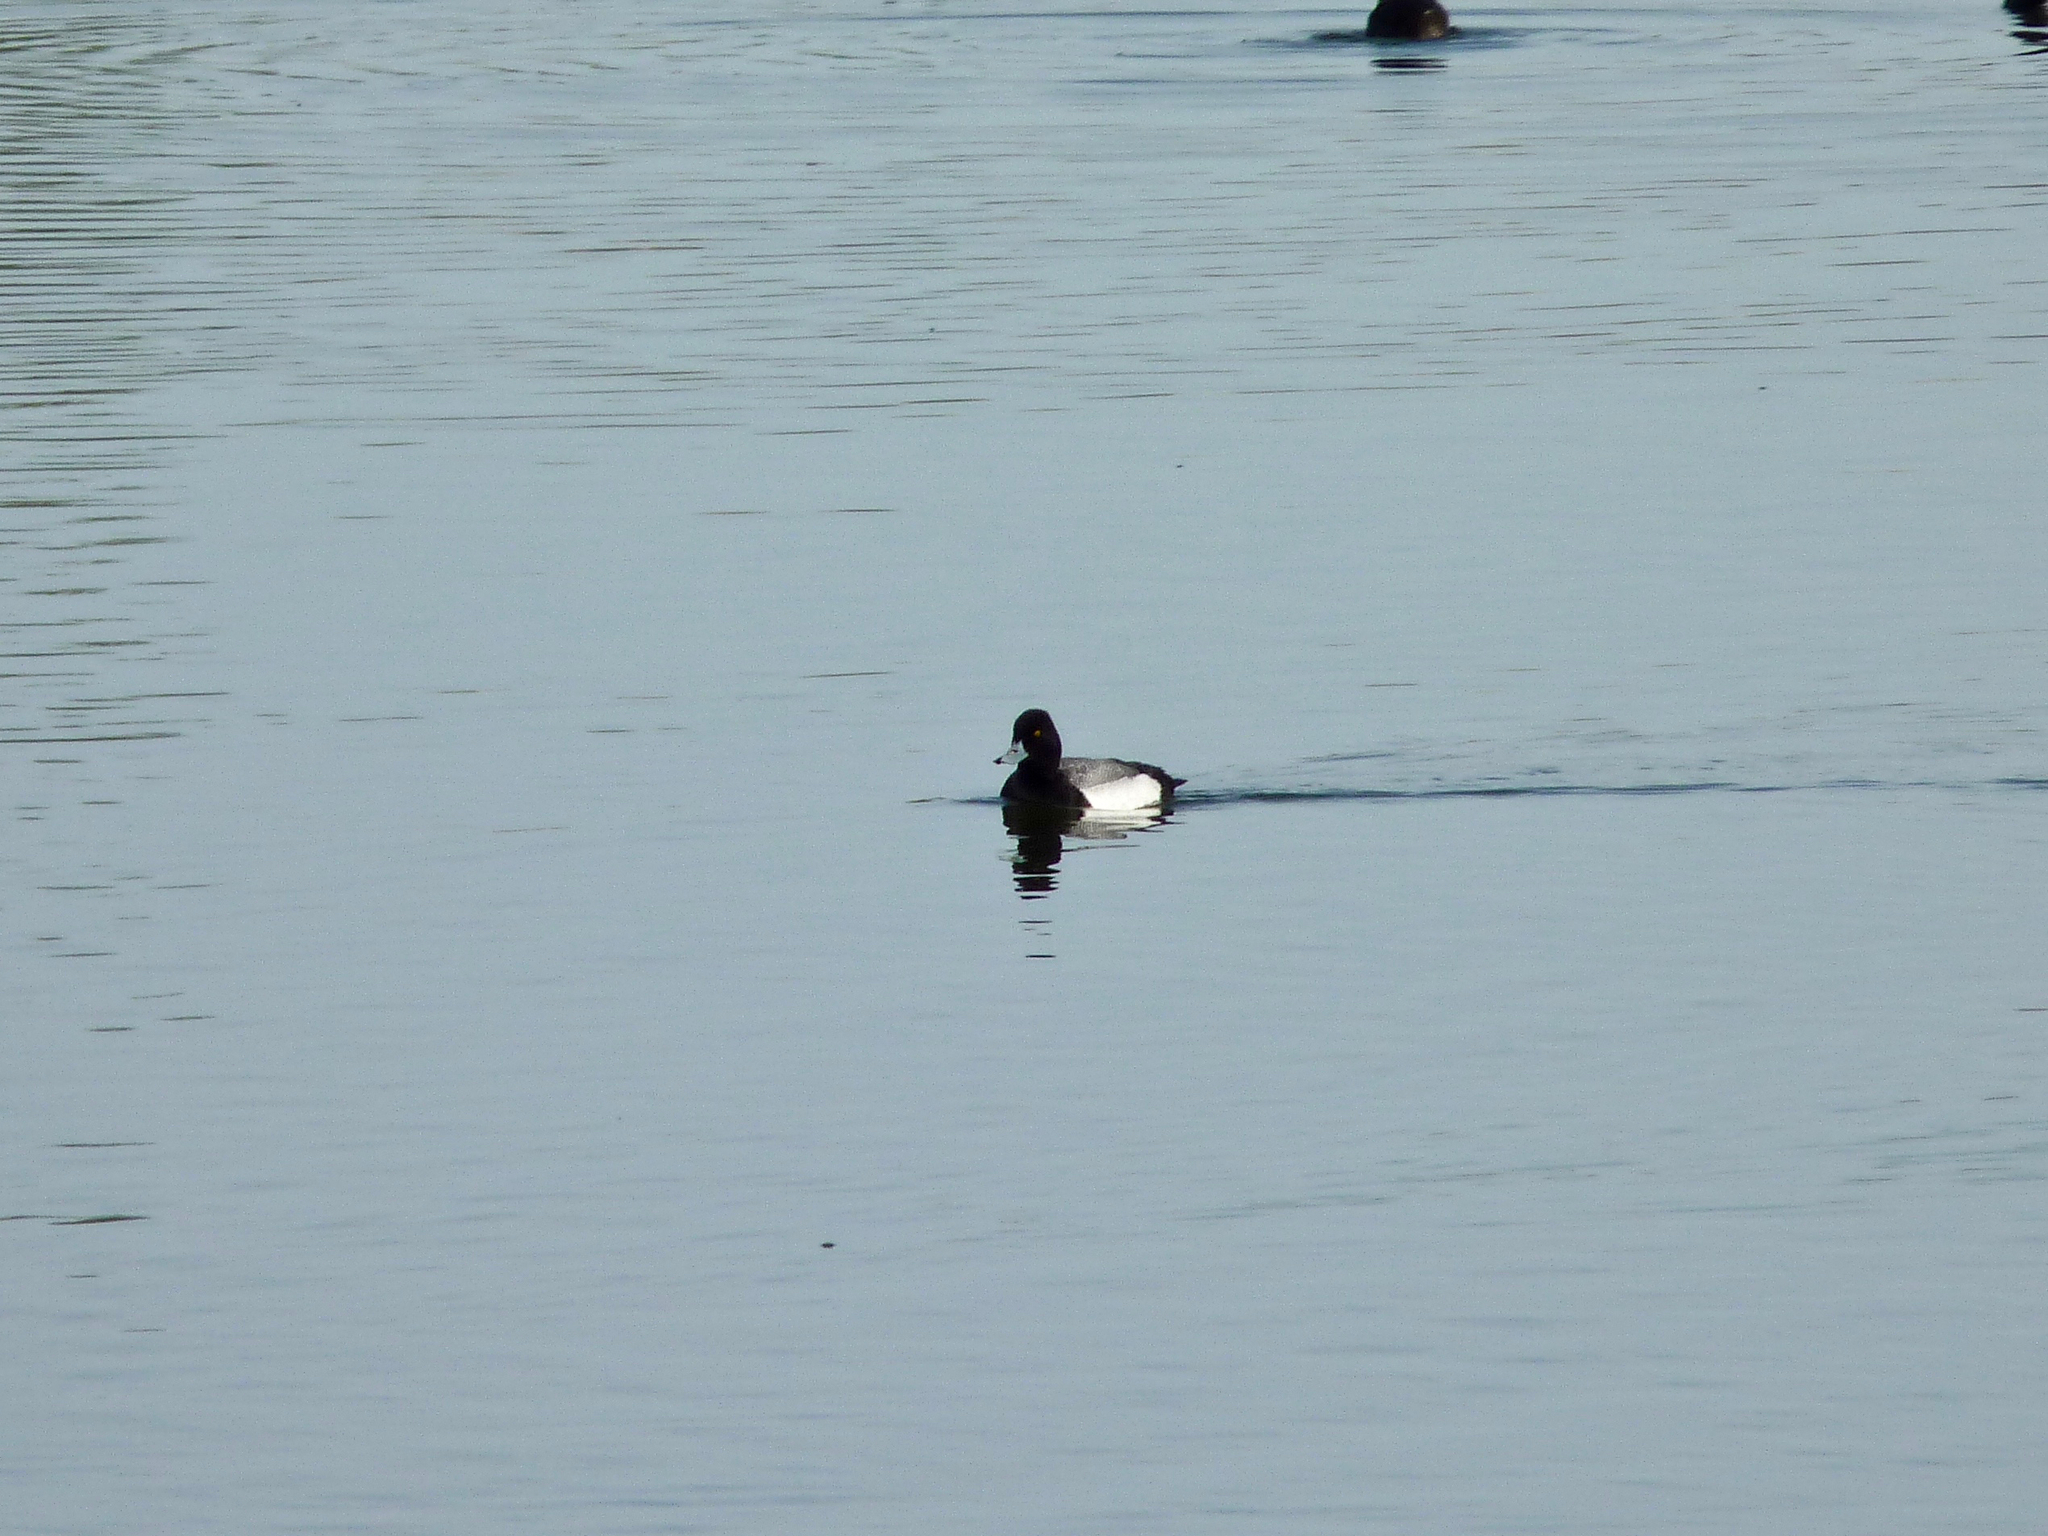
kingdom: Animalia
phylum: Chordata
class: Aves
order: Anseriformes
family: Anatidae
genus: Aythya
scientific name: Aythya affinis
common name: Lesser scaup
